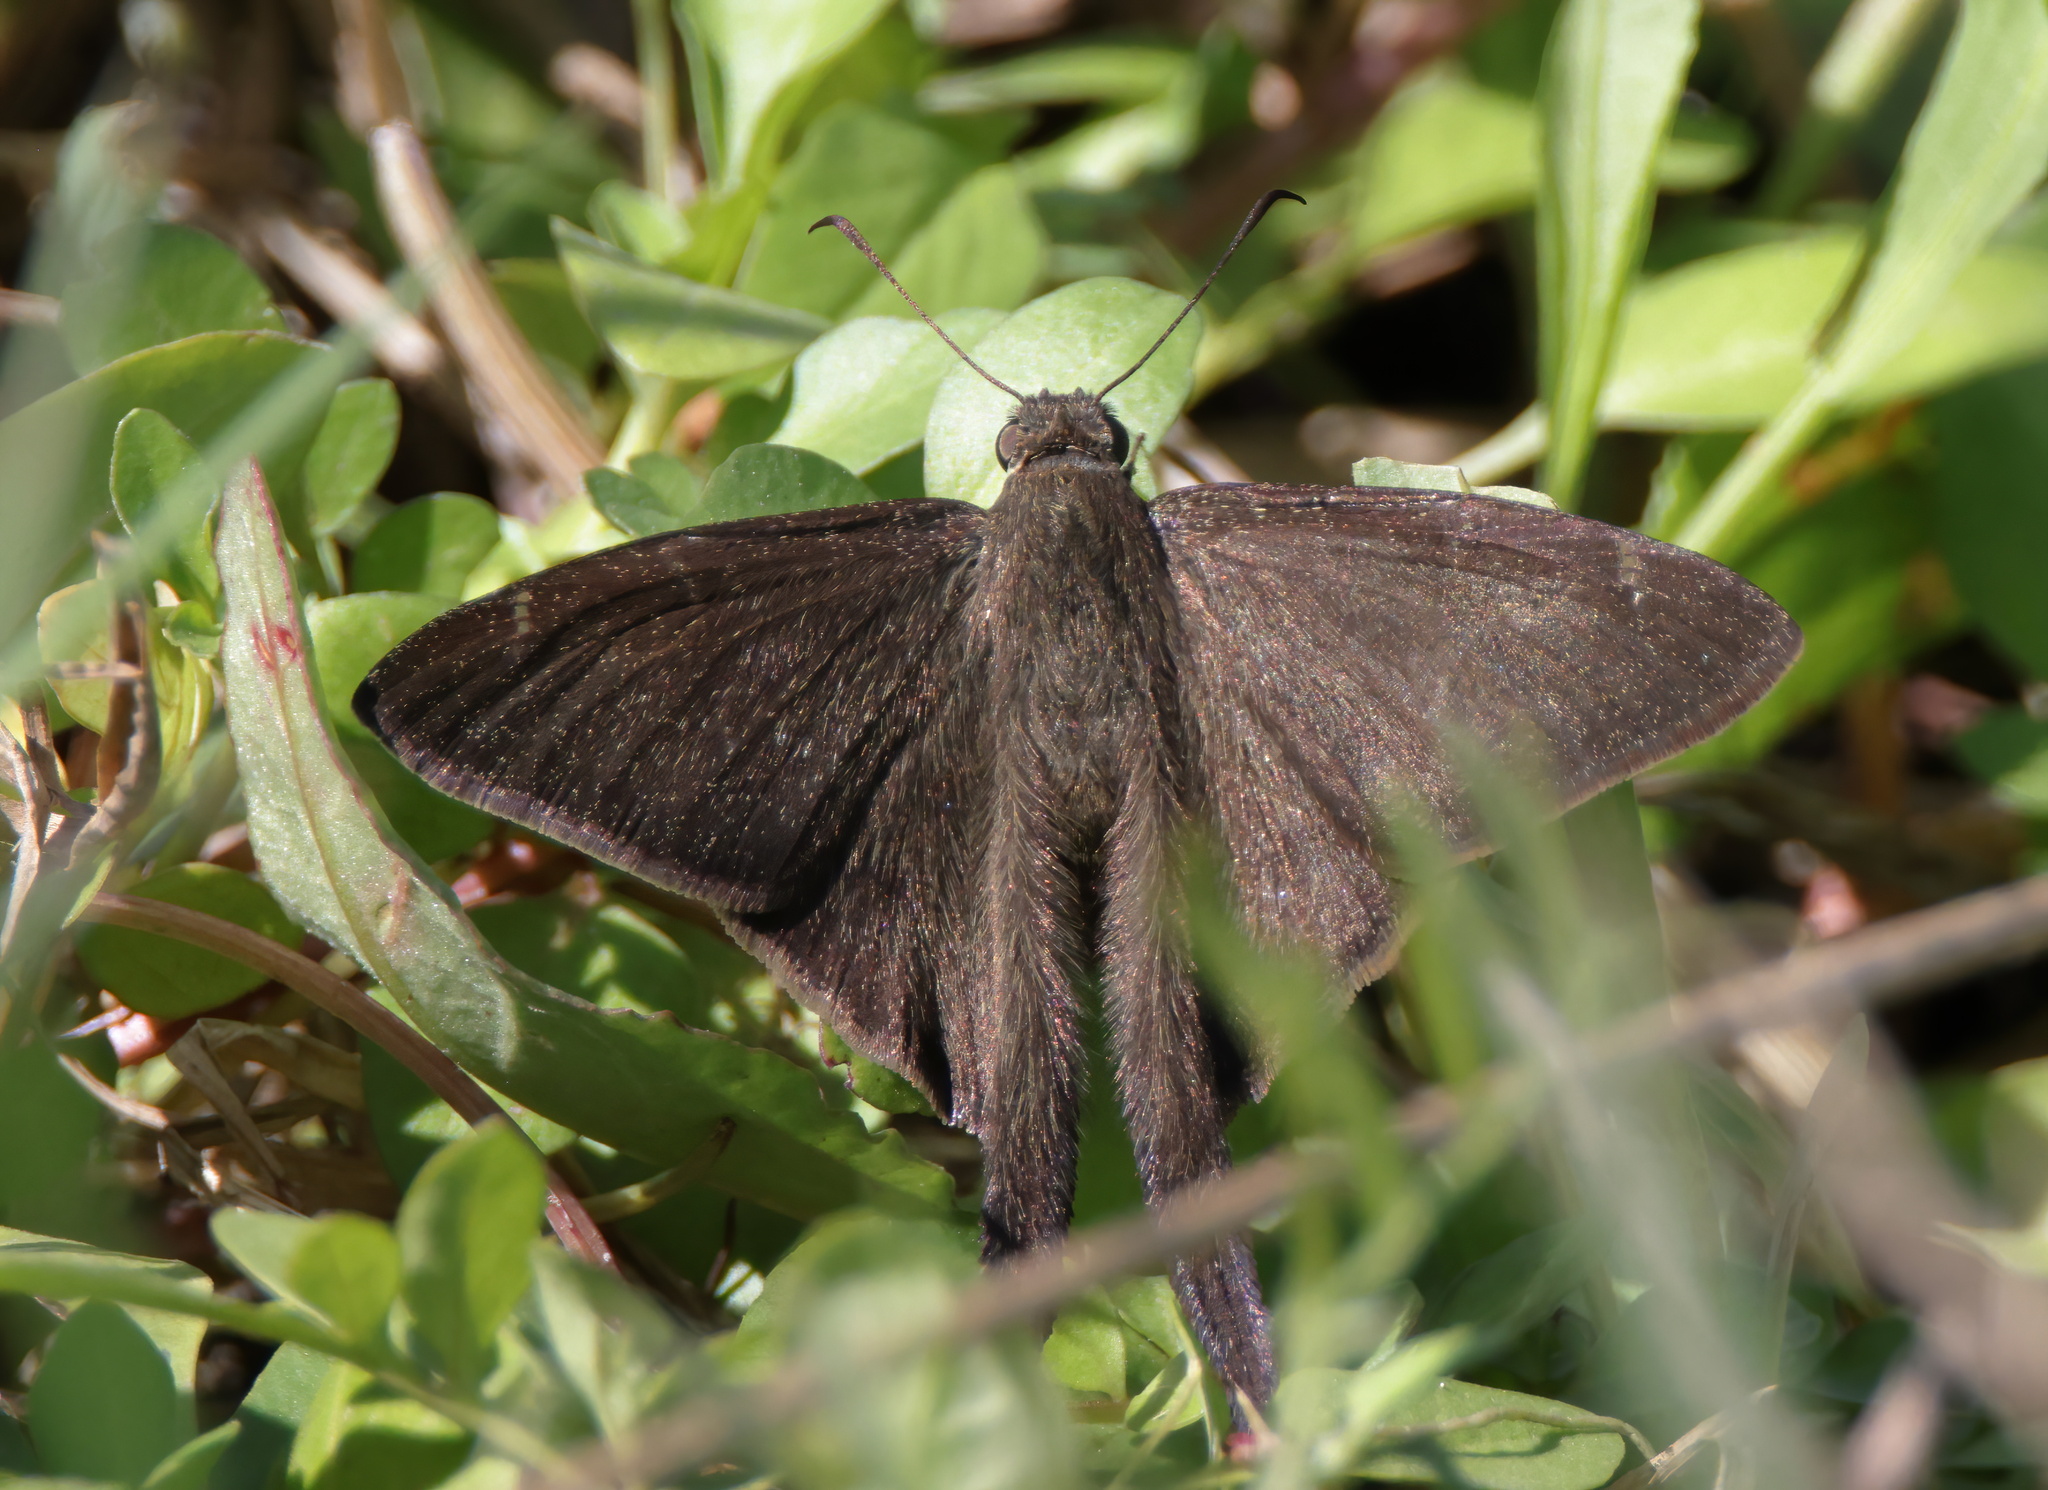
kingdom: Animalia
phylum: Arthropoda
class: Insecta
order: Lepidoptera
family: Hesperiidae
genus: Urbanus
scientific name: Urbanus procne
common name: Brown longtail
